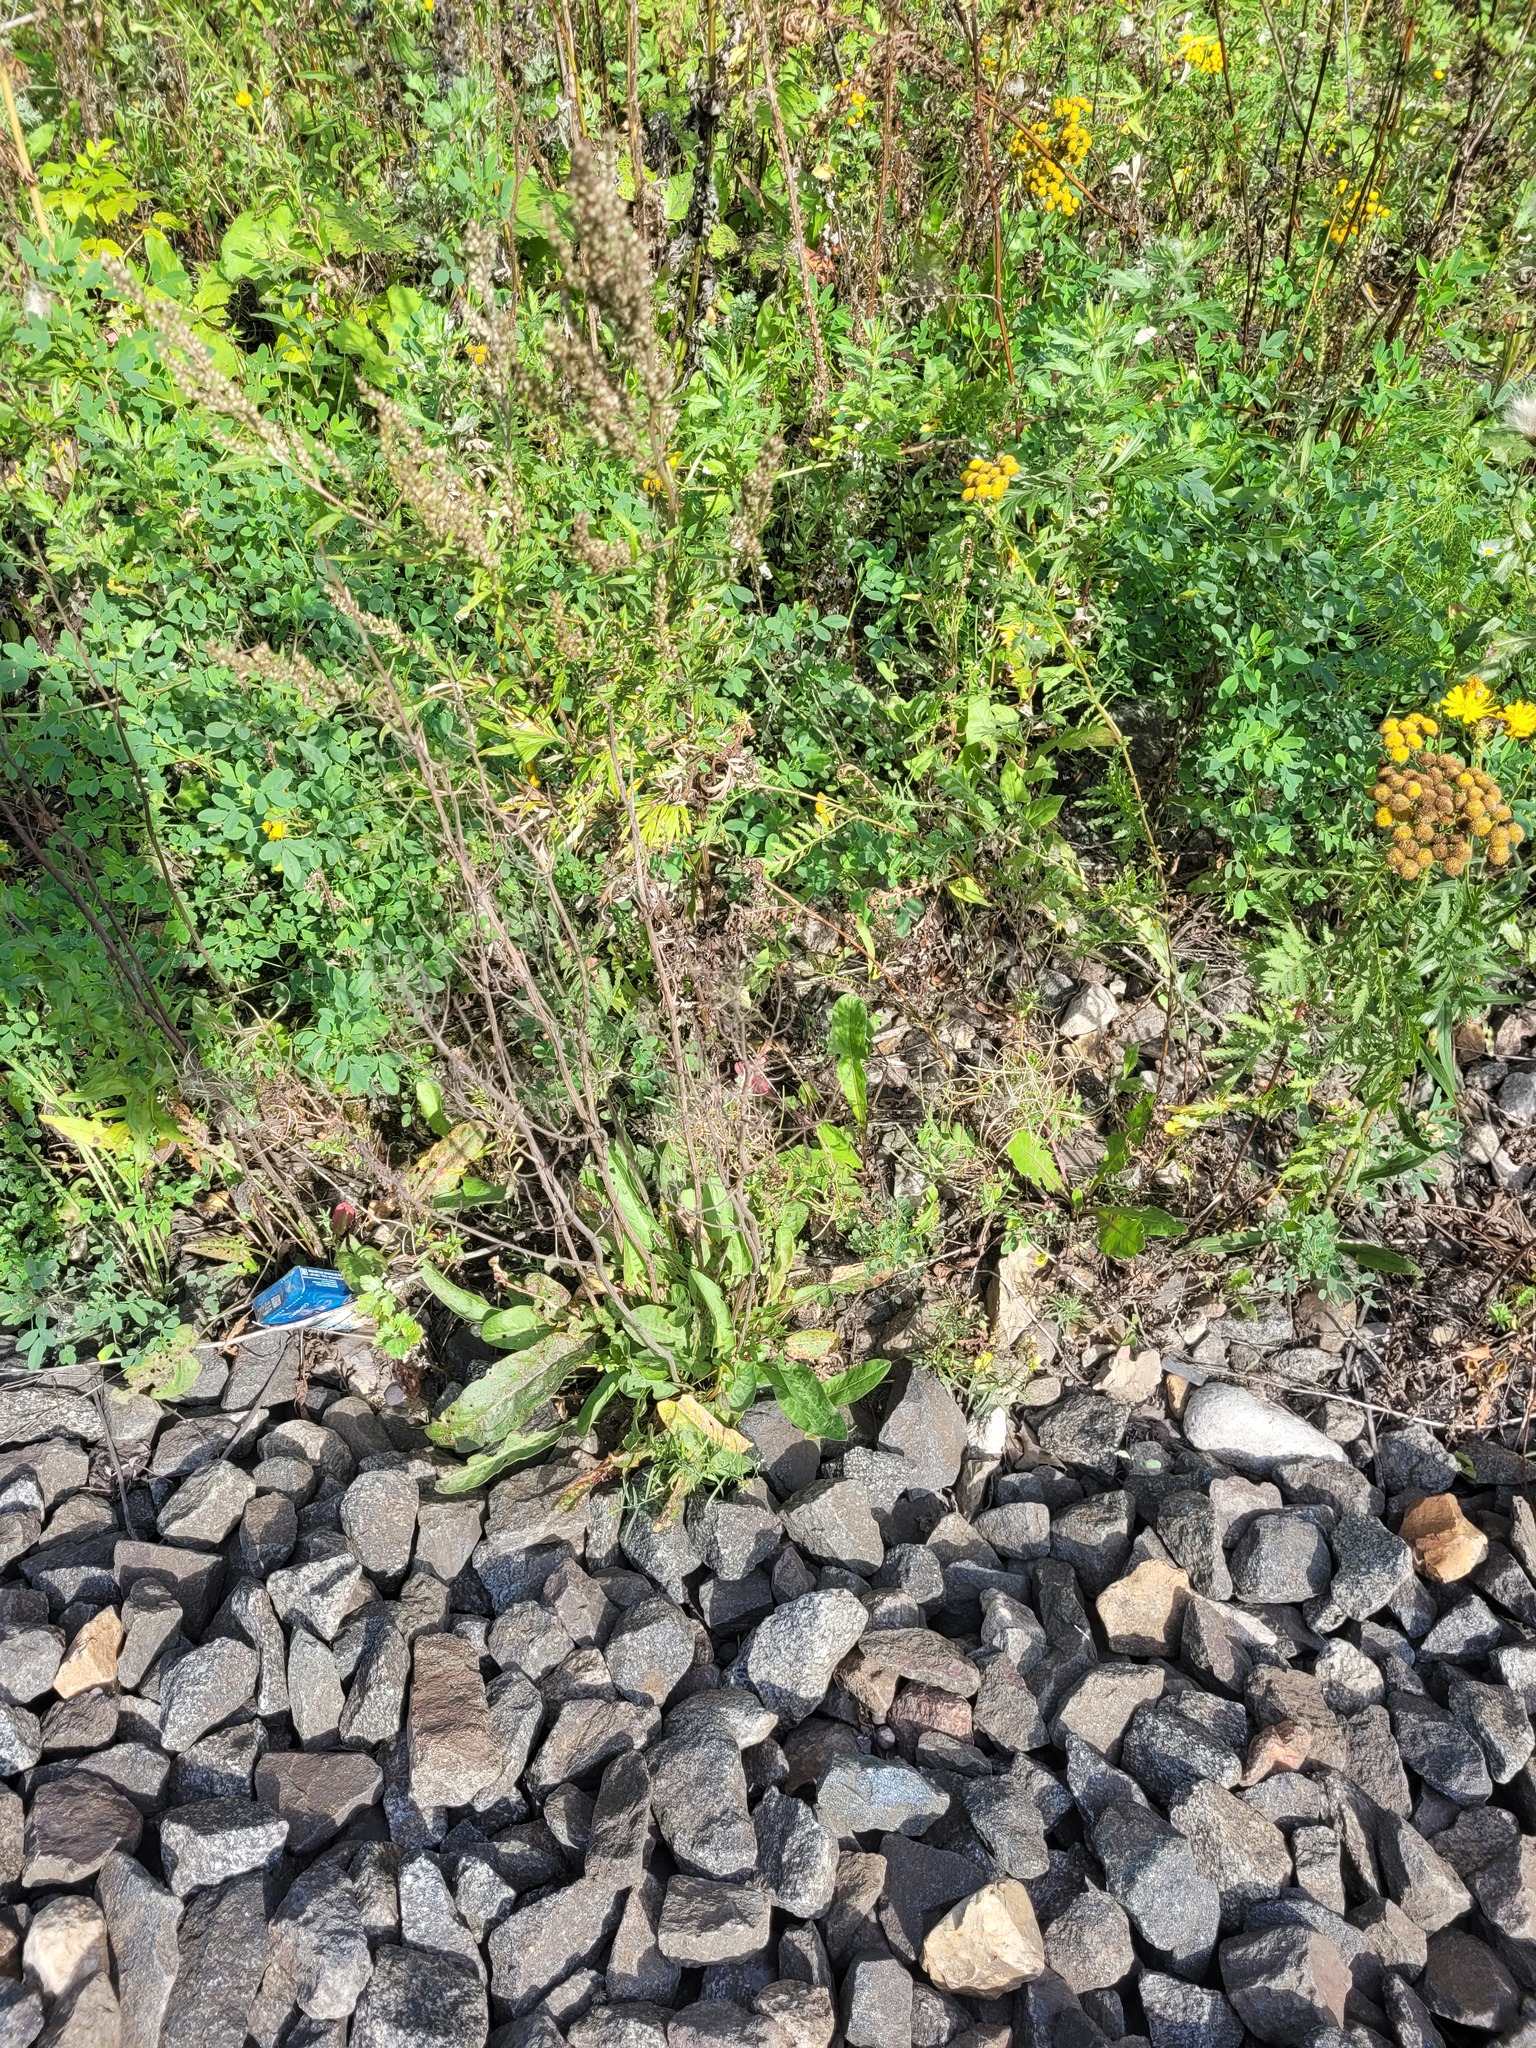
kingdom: Plantae
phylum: Tracheophyta
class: Magnoliopsida
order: Caryophyllales
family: Polygonaceae
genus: Rumex
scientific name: Rumex thyrsiflorus
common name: Garden sorrel
